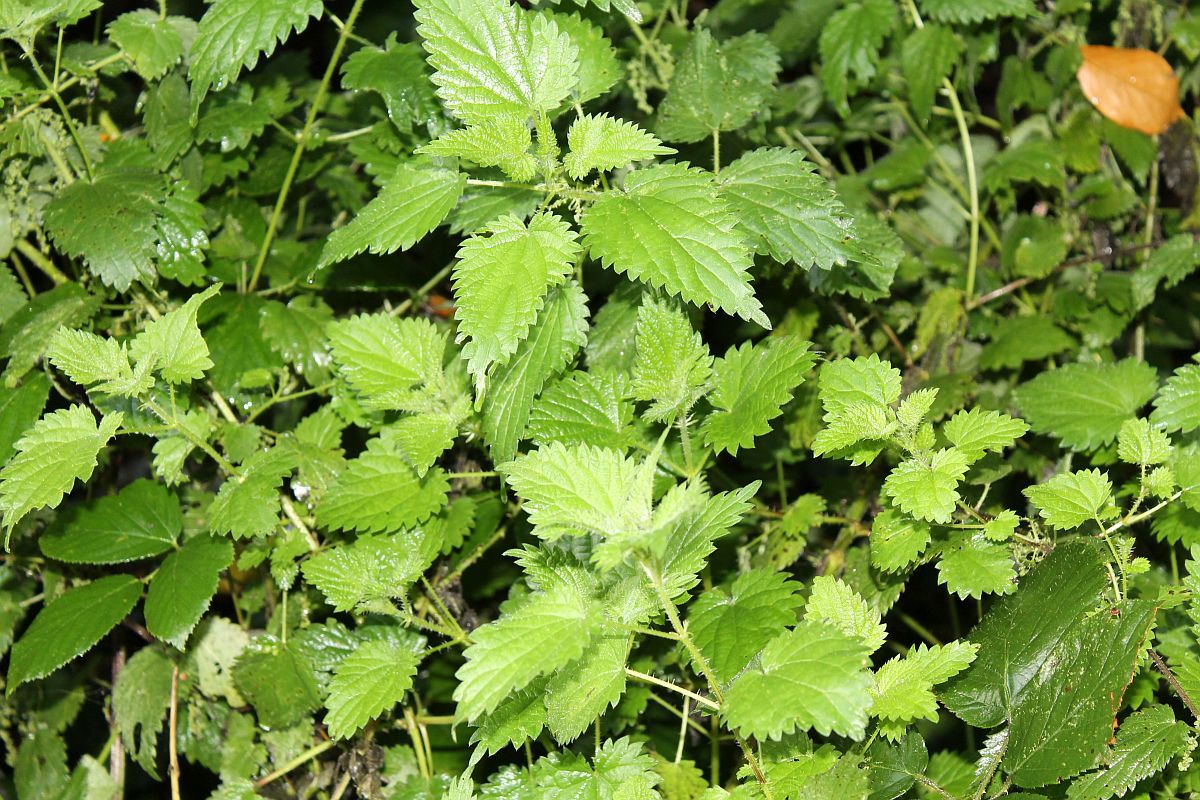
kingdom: Plantae
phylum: Tracheophyta
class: Magnoliopsida
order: Rosales
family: Urticaceae
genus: Urtica
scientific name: Urtica dioica
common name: Common nettle
